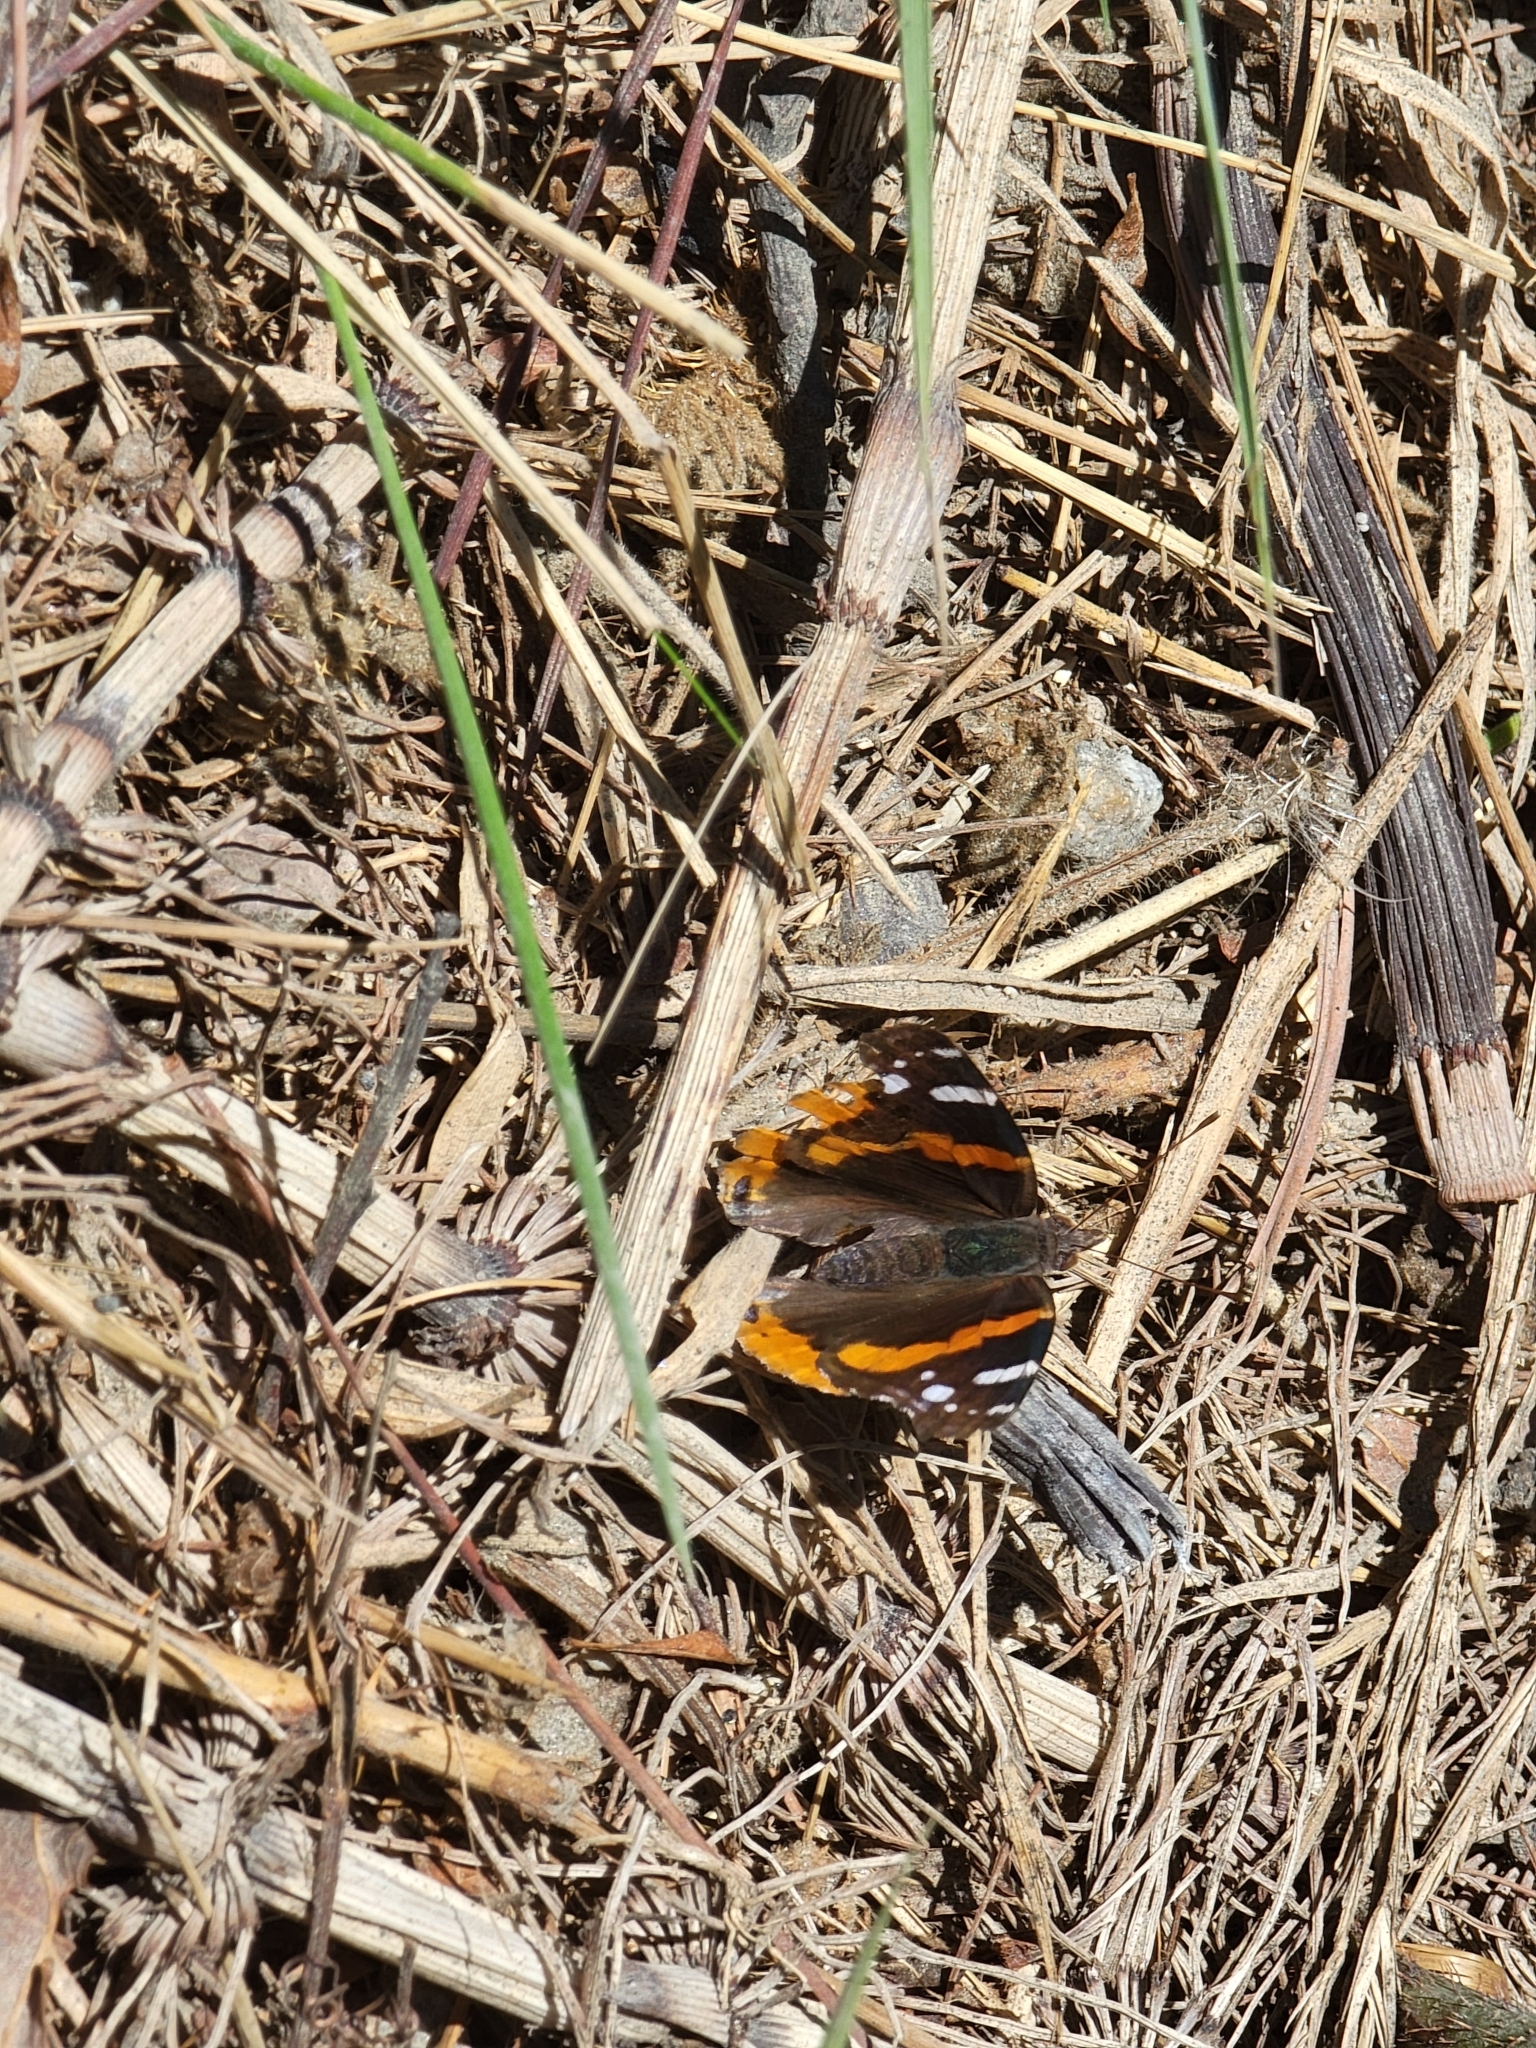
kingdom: Animalia
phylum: Arthropoda
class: Insecta
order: Lepidoptera
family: Nymphalidae
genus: Vanessa
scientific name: Vanessa atalanta
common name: Red admiral
